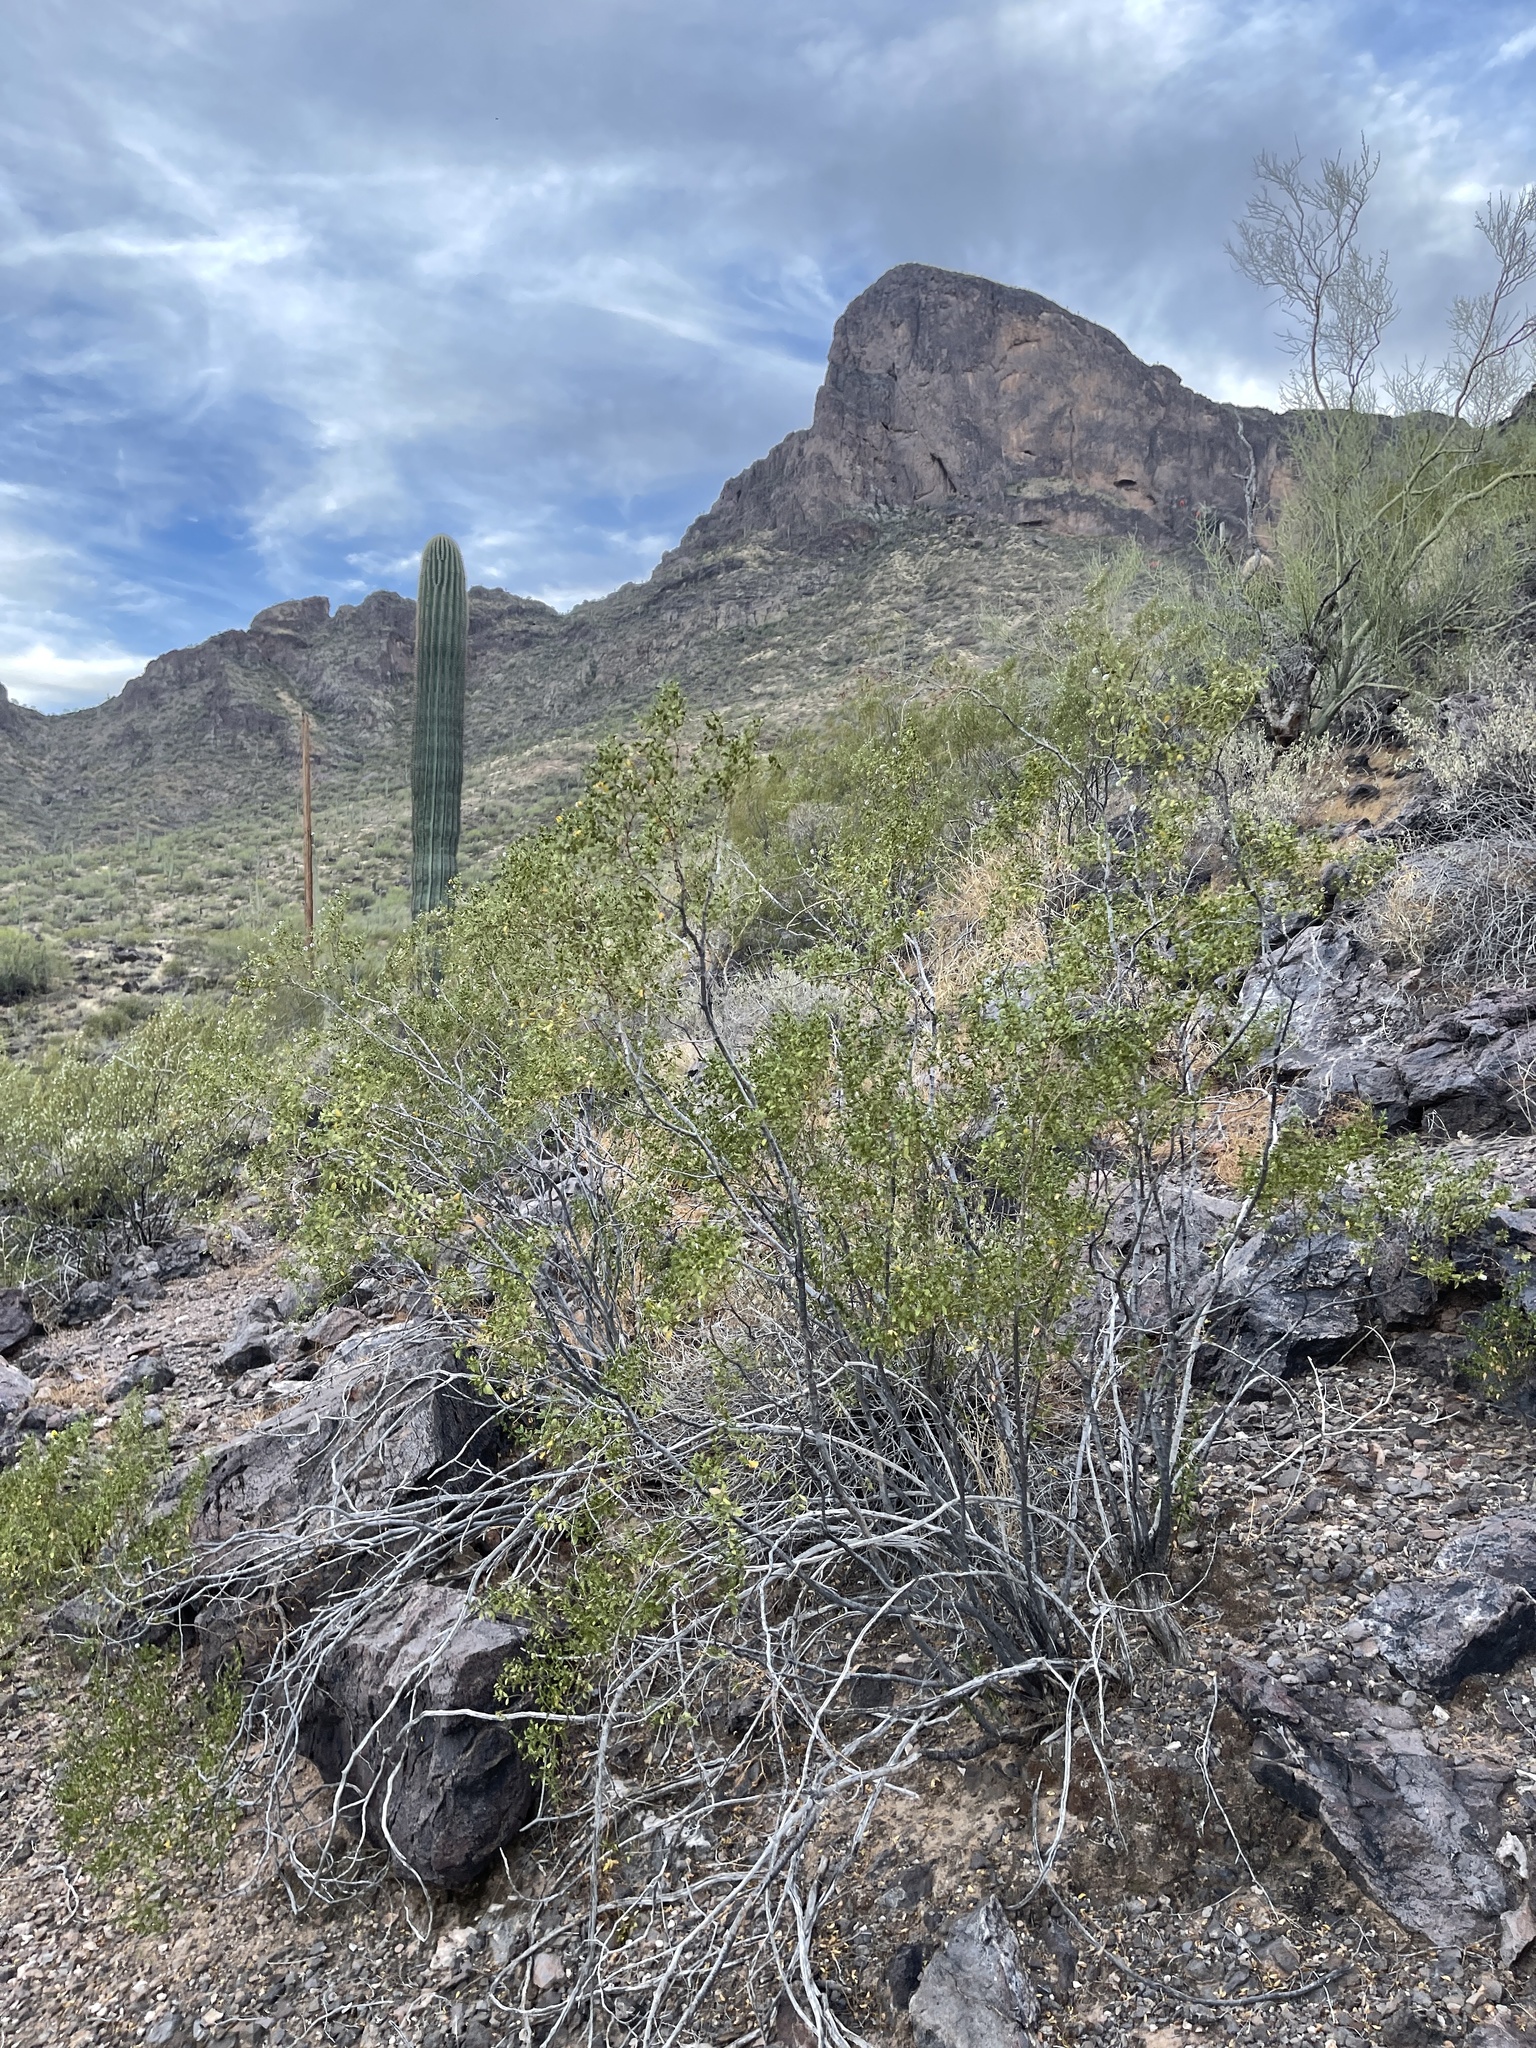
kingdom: Plantae
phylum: Tracheophyta
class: Magnoliopsida
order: Zygophyllales
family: Zygophyllaceae
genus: Larrea
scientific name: Larrea tridentata
